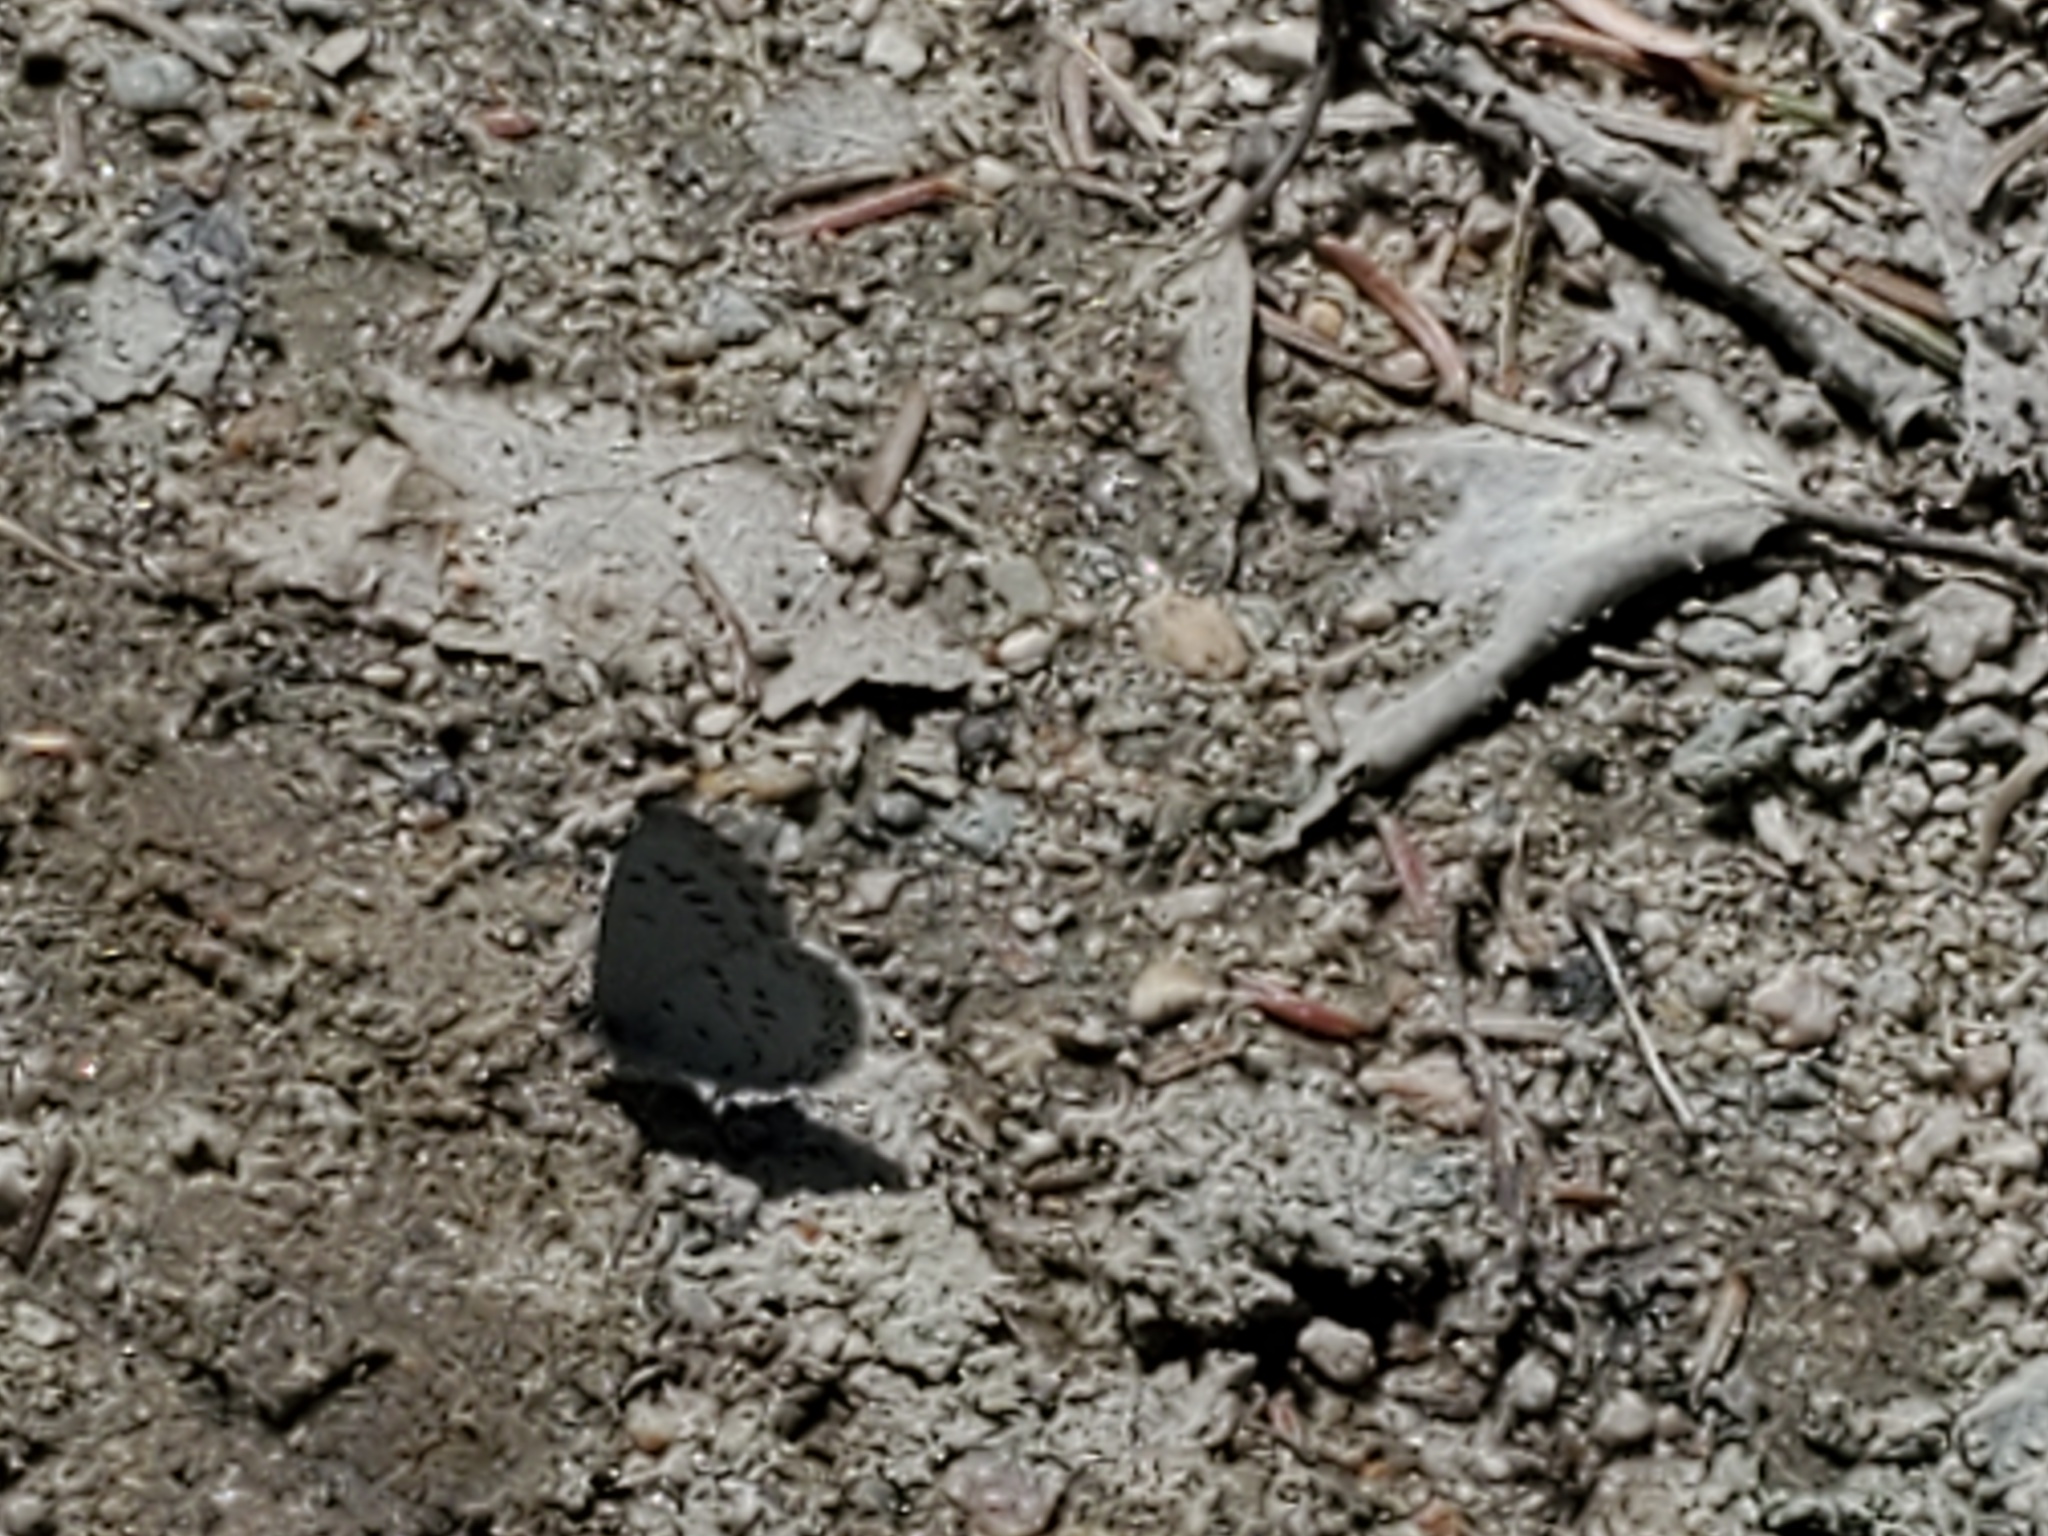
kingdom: Animalia
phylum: Arthropoda
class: Insecta
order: Lepidoptera
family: Lycaenidae
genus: Celastrina
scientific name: Celastrina lucia
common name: Lucia azure
